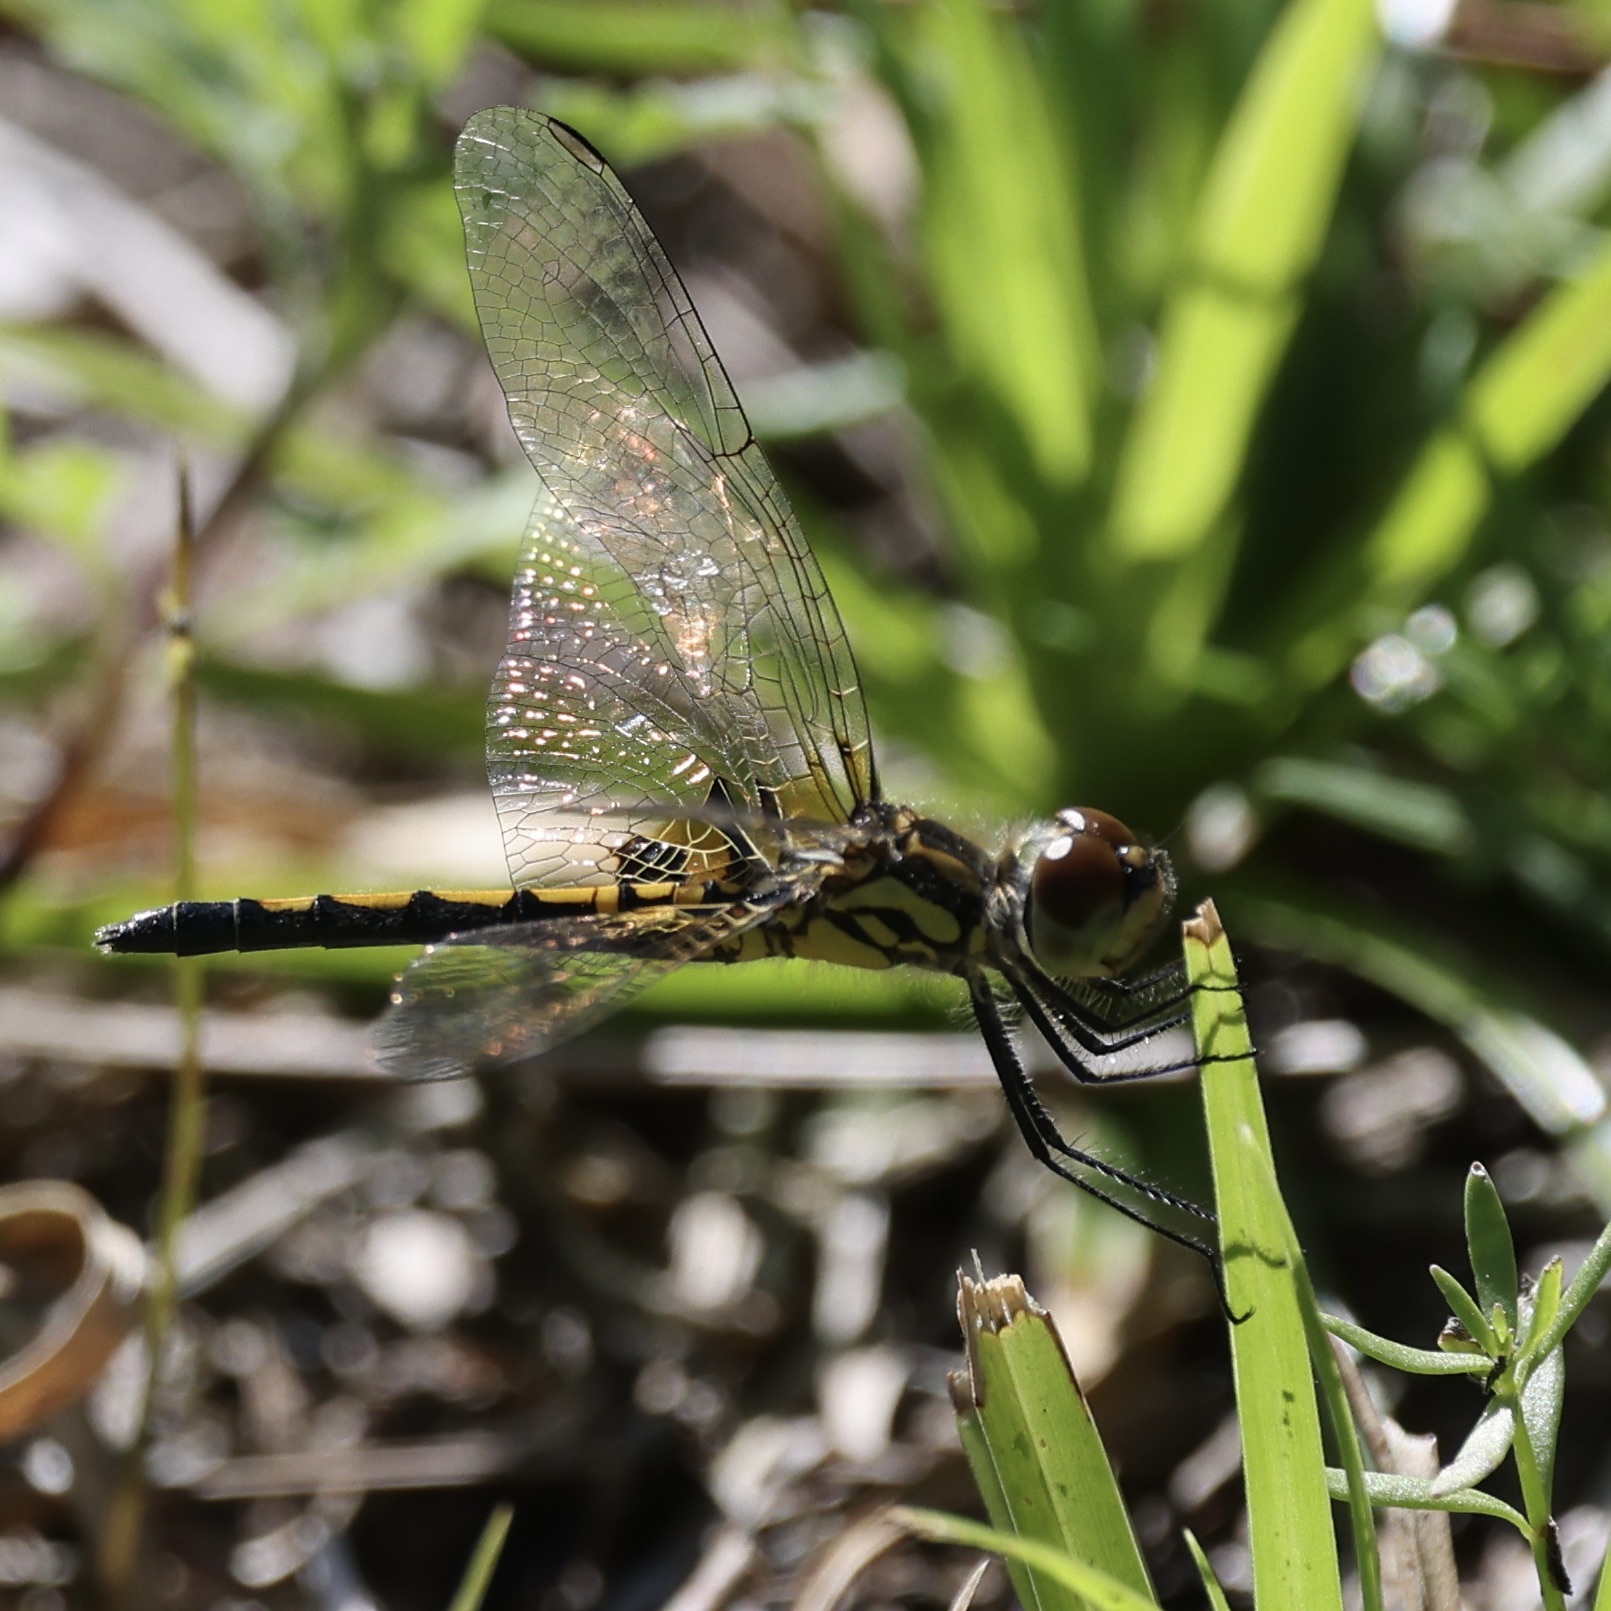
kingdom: Animalia
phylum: Arthropoda
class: Insecta
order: Odonata
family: Libellulidae
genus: Celithemis
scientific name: Celithemis ornata
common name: Ornate pennant
